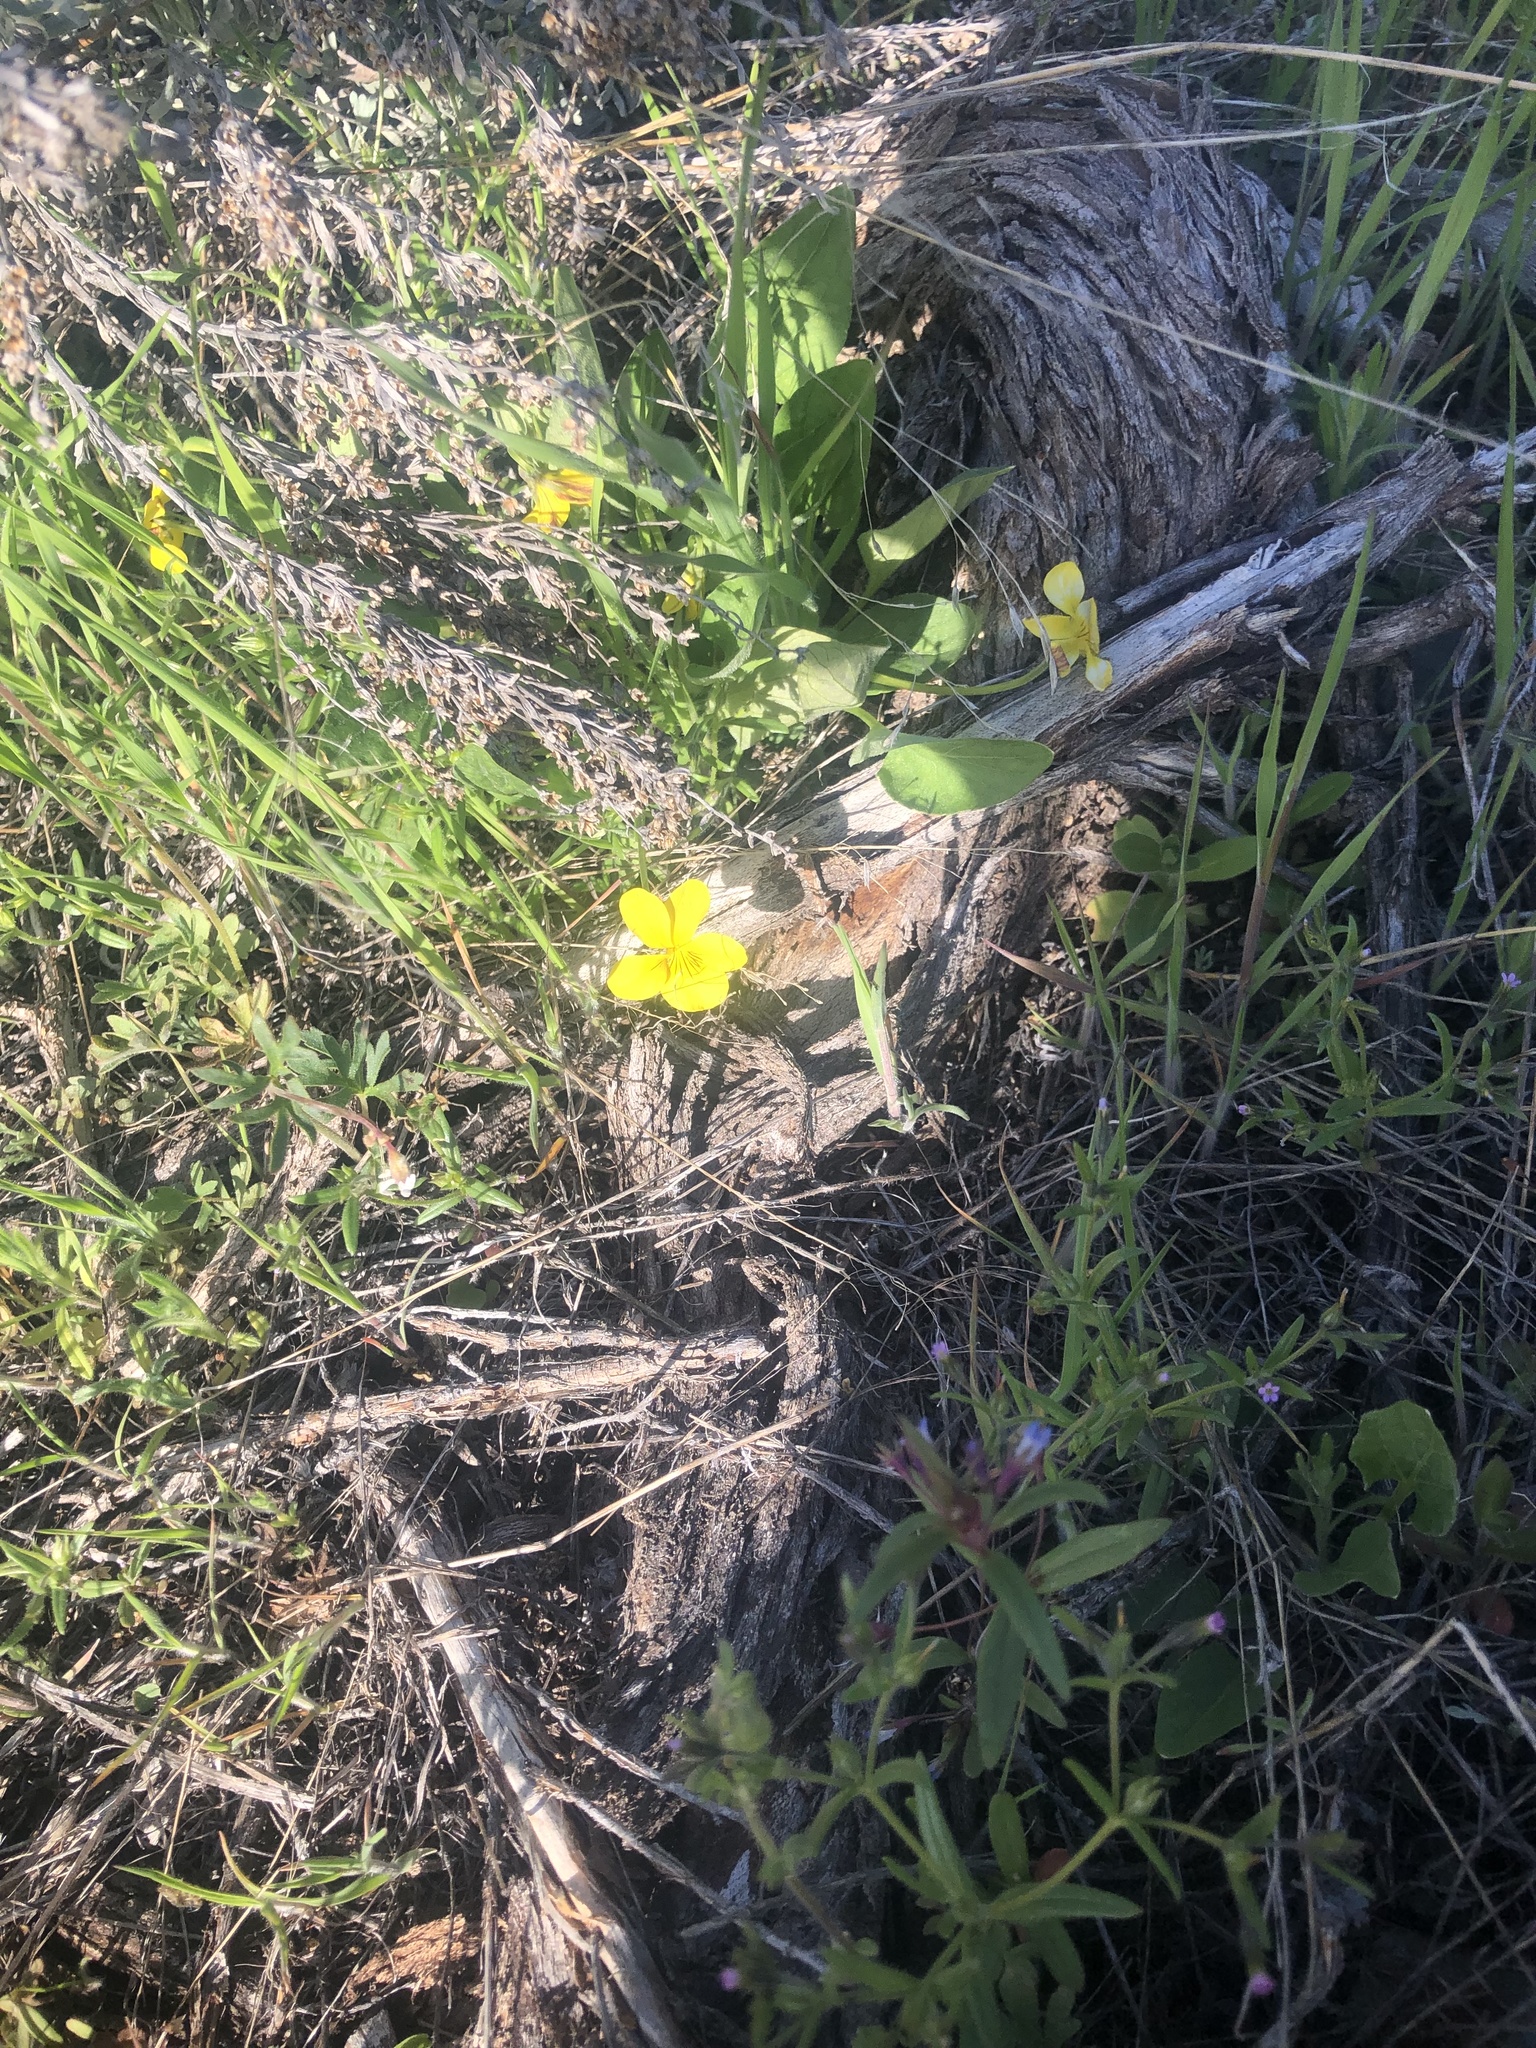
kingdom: Plantae
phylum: Tracheophyta
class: Magnoliopsida
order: Ranunculales
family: Ranunculaceae
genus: Ranunculus
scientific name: Ranunculus glaberrimus
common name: Sagebrush buttercup
